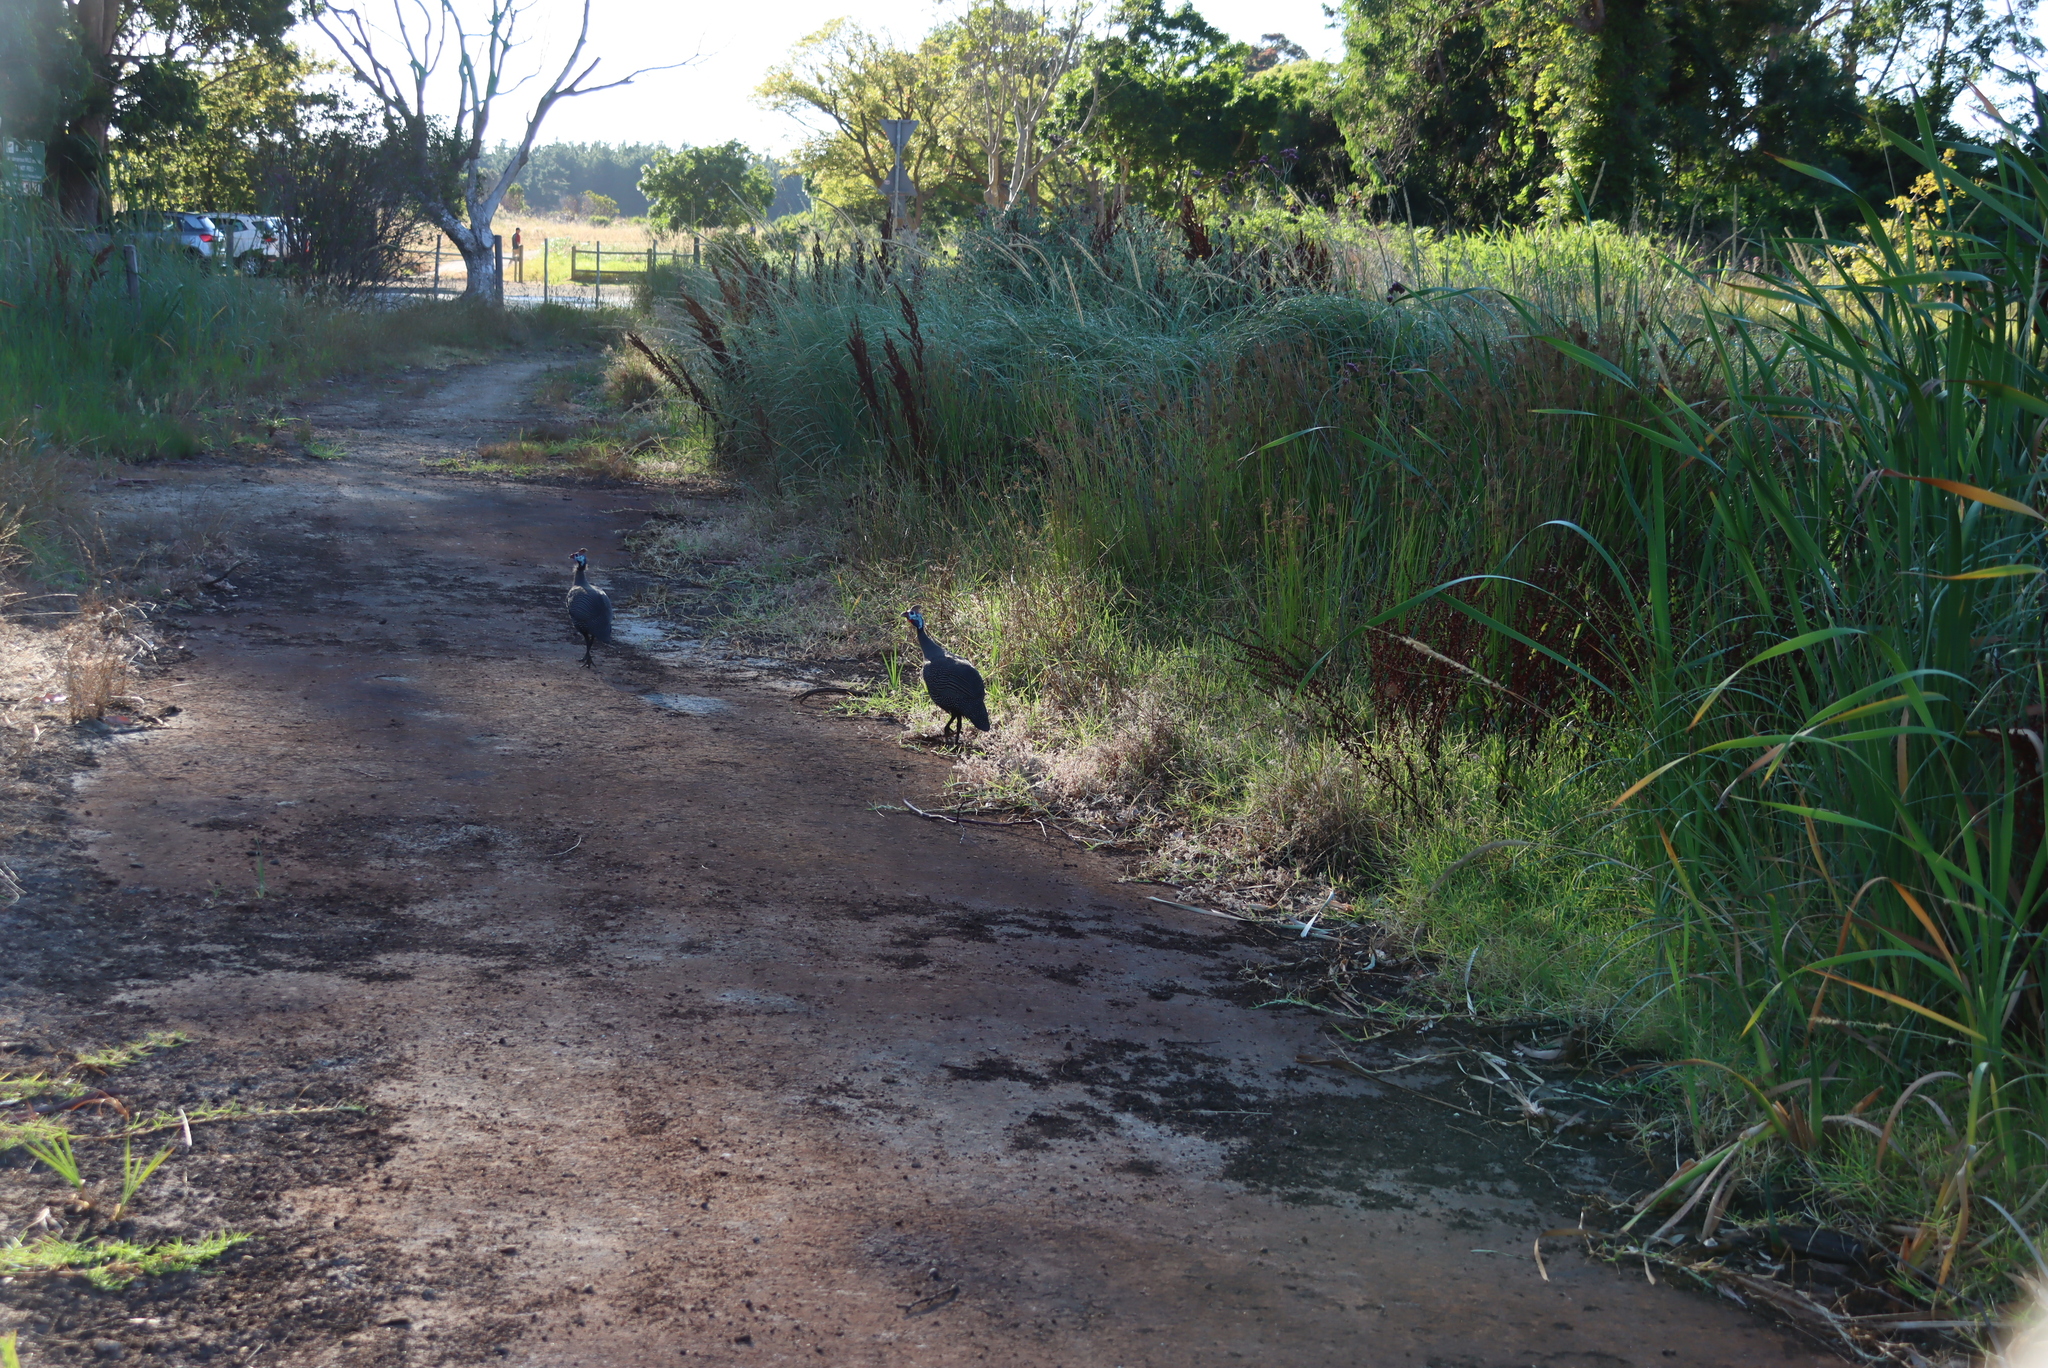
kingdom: Animalia
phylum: Chordata
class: Aves
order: Galliformes
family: Numididae
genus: Numida
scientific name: Numida meleagris
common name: Helmeted guineafowl
